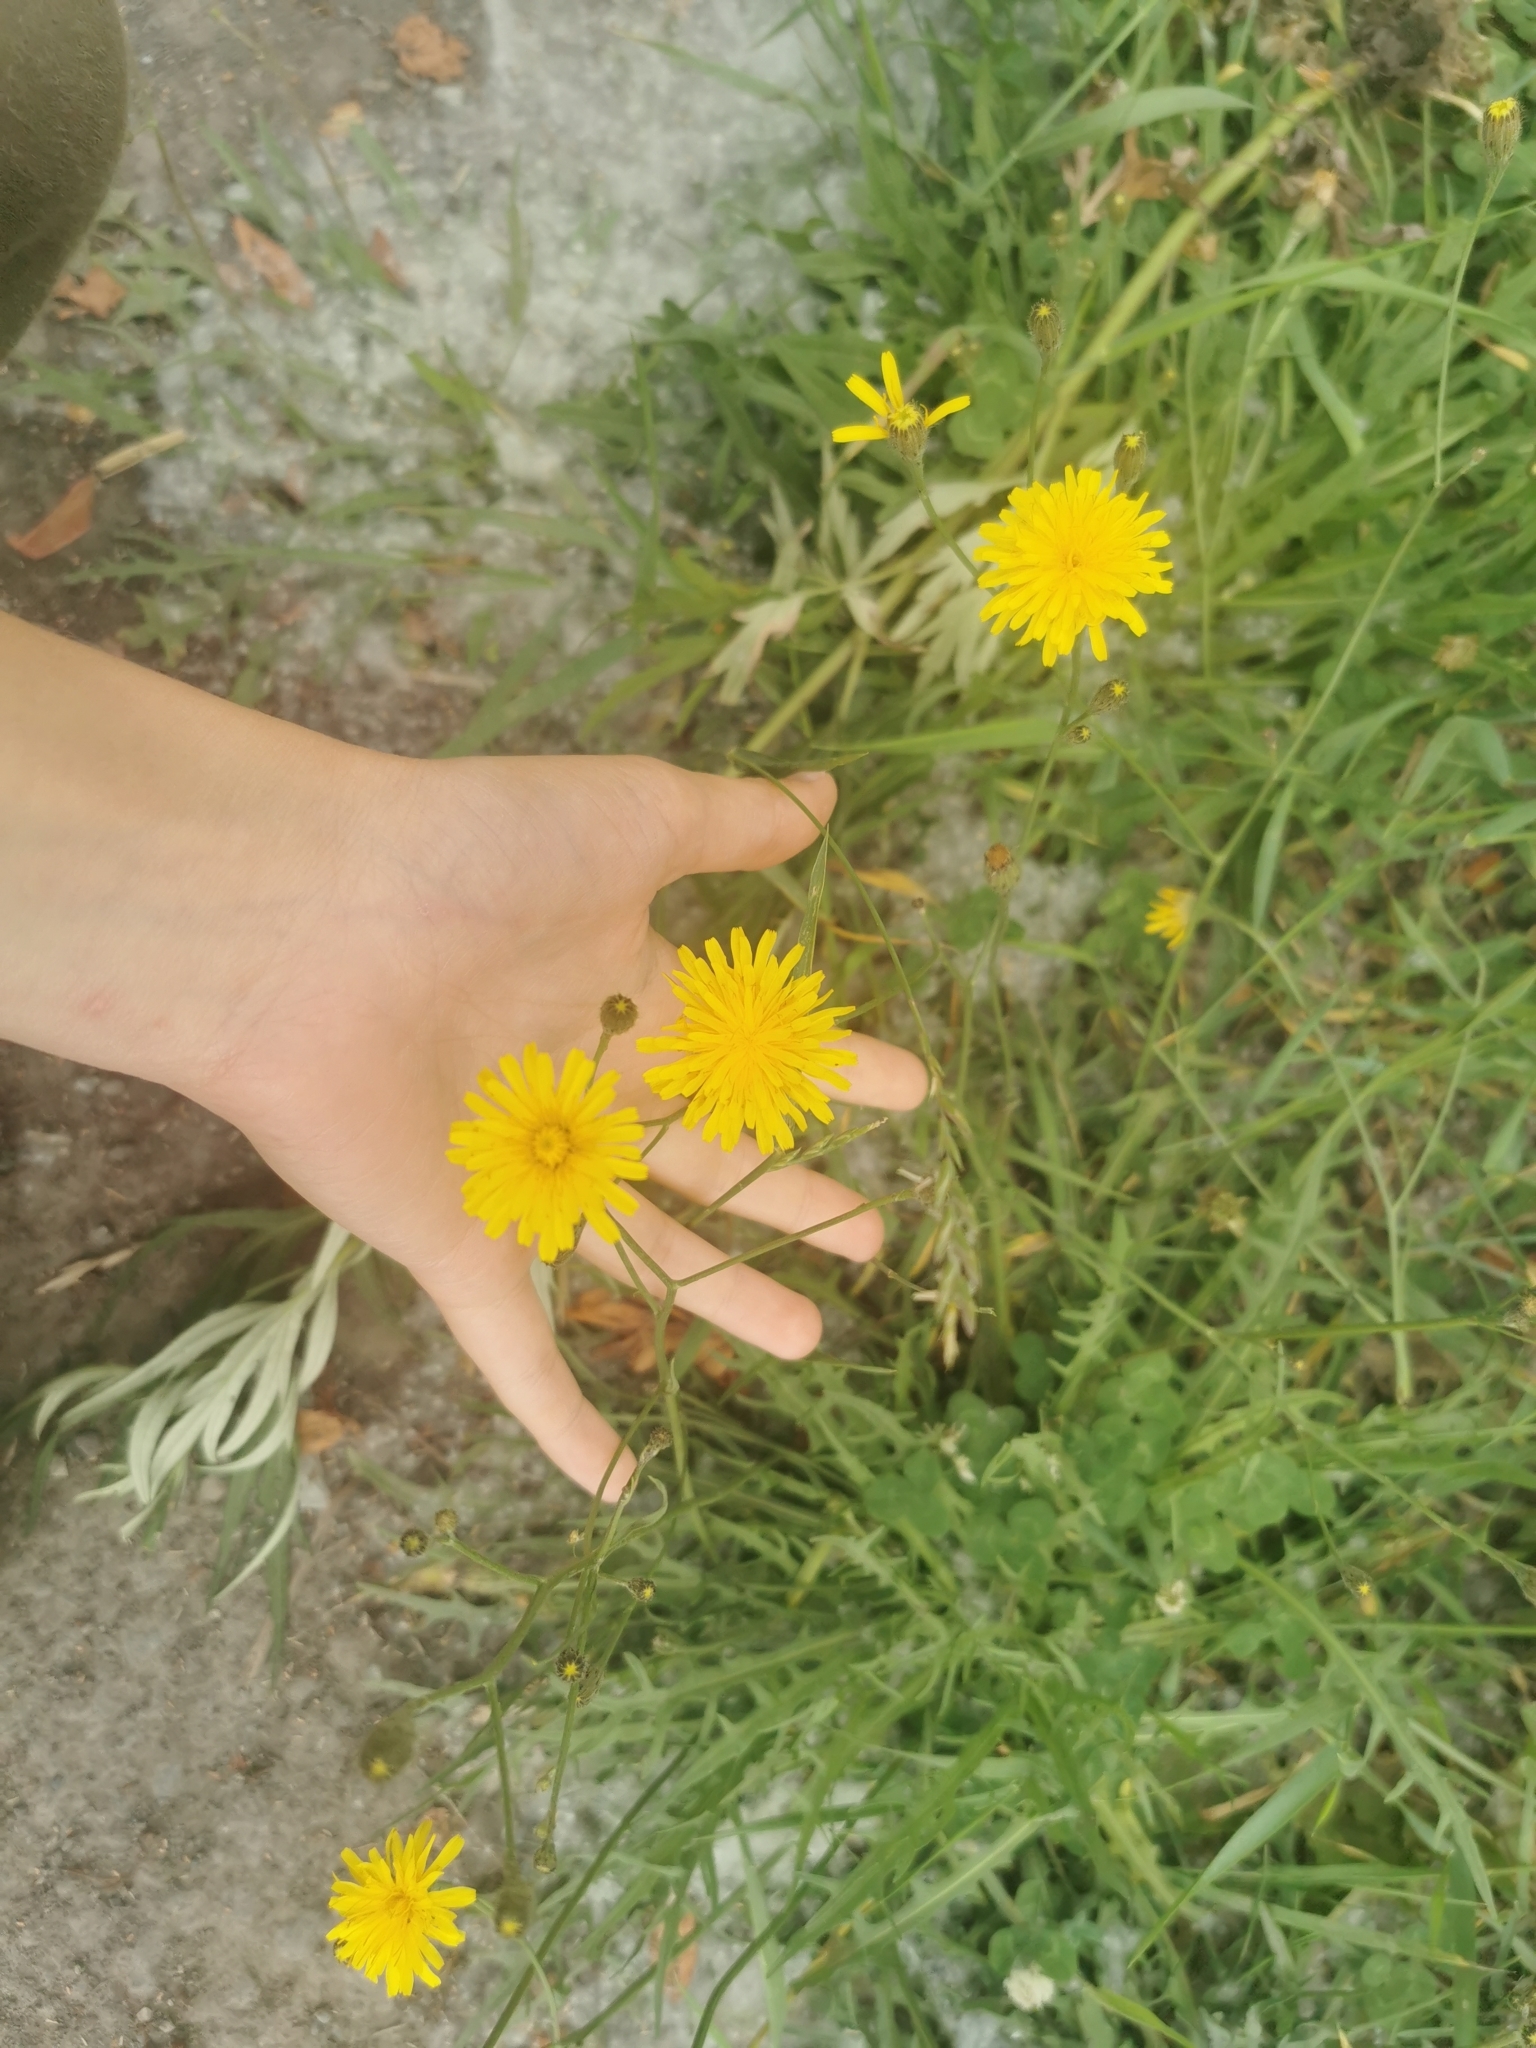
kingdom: Plantae
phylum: Tracheophyta
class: Magnoliopsida
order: Asterales
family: Asteraceae
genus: Scorzoneroides
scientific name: Scorzoneroides autumnalis
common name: Autumn hawkbit
